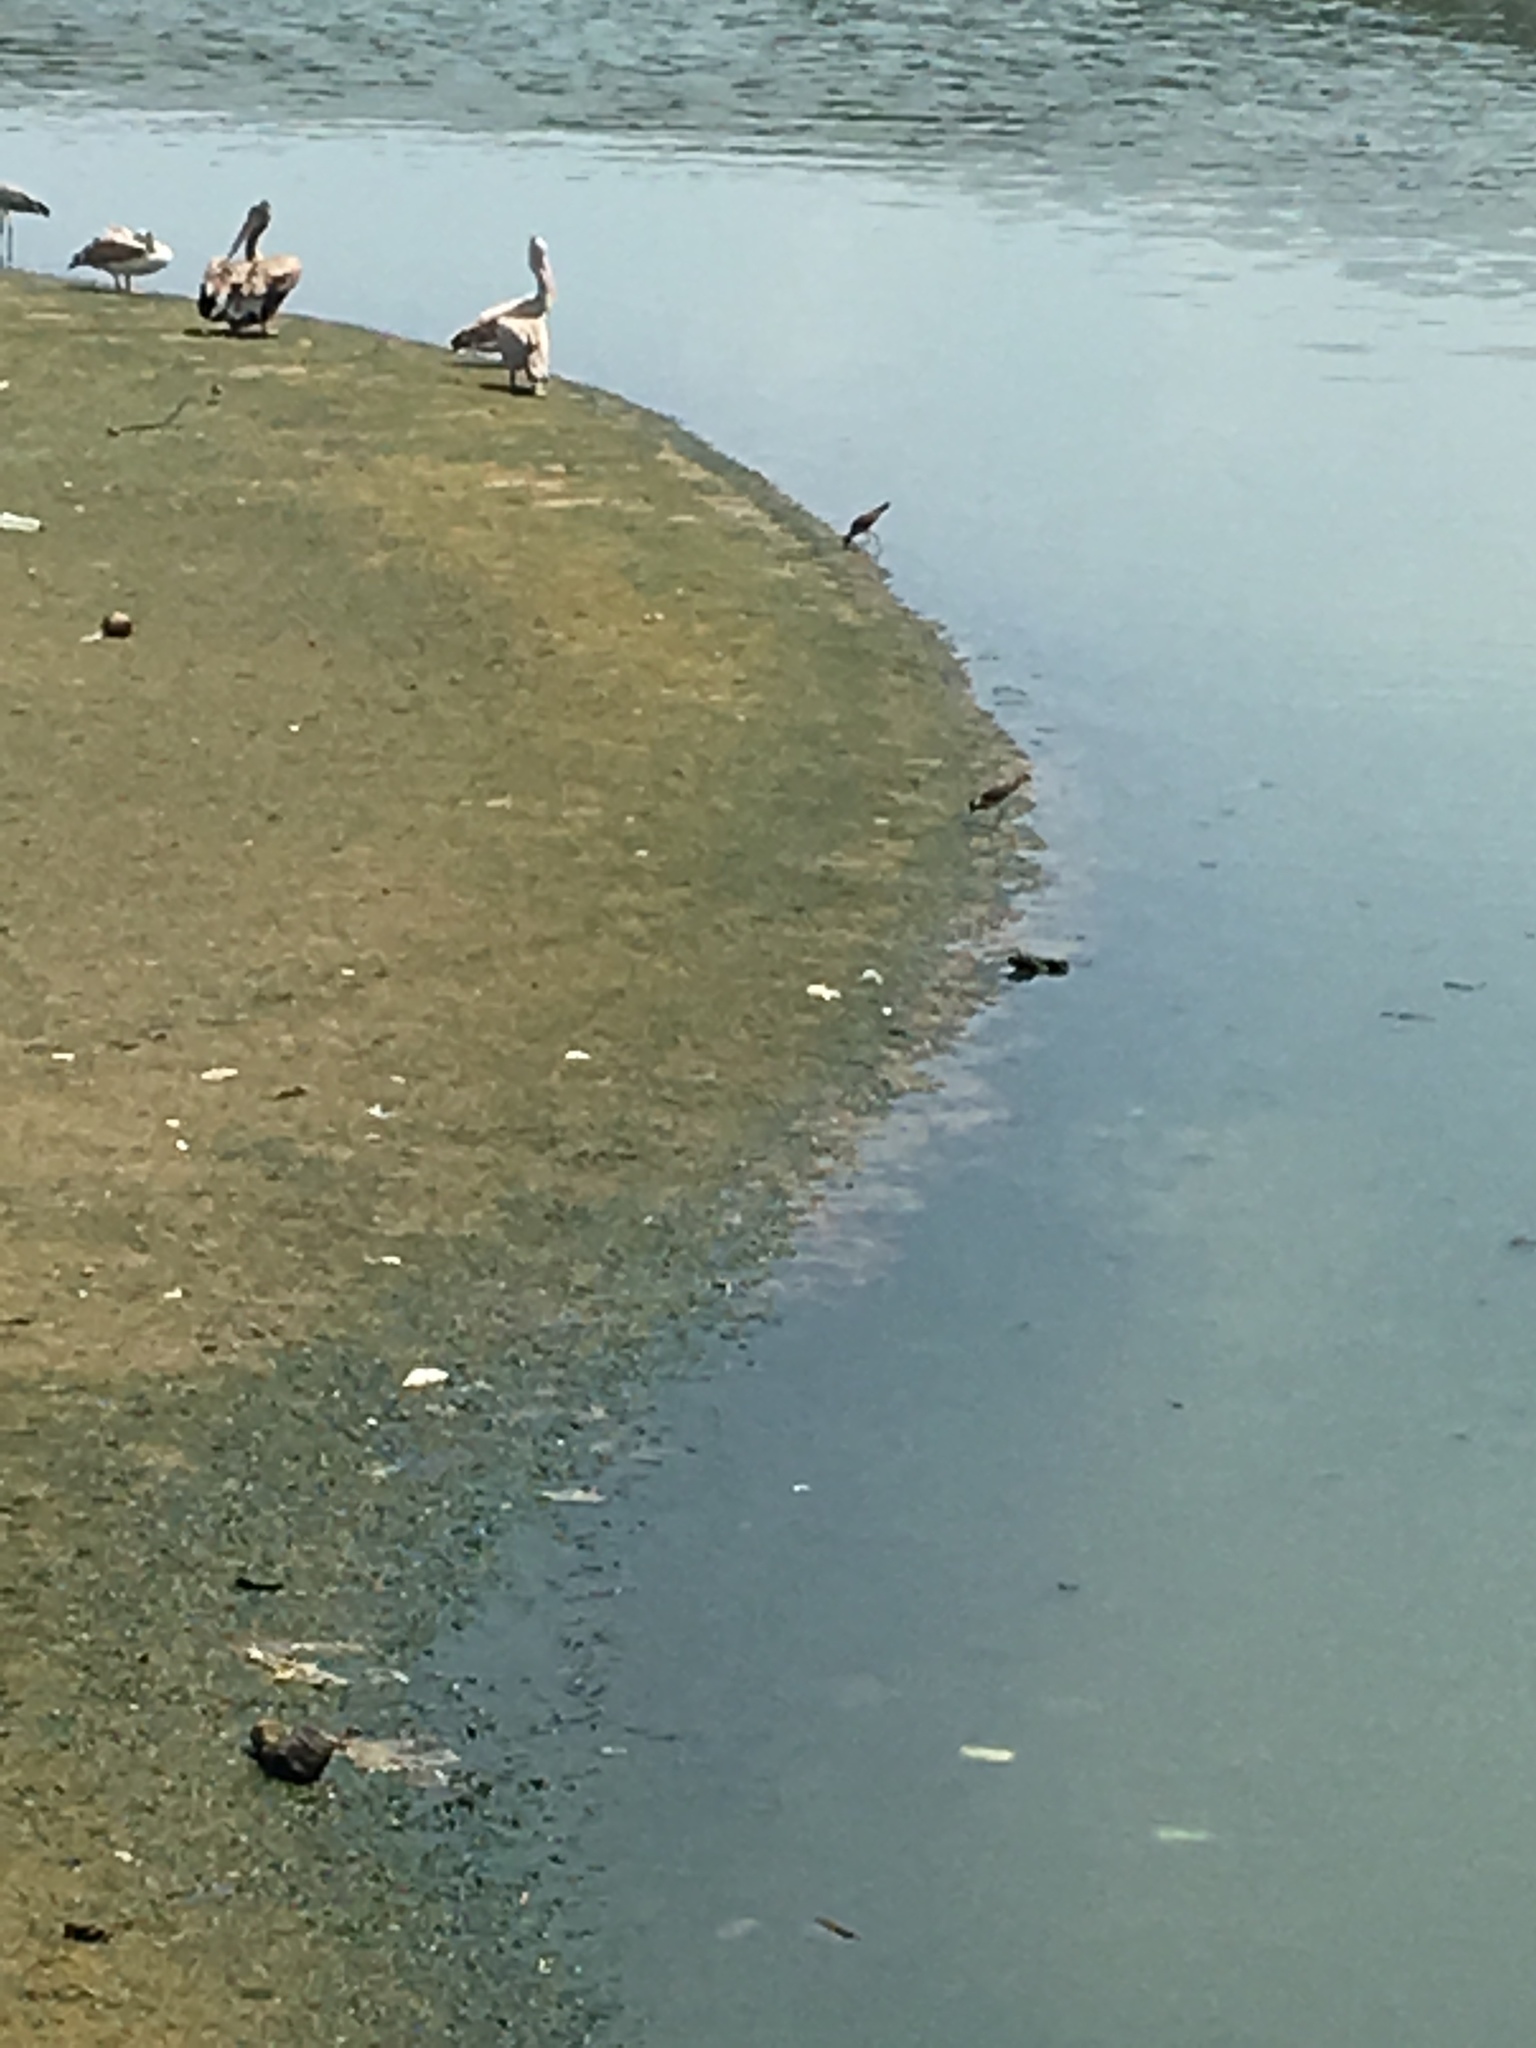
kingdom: Animalia
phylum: Chordata
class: Aves
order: Charadriiformes
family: Charadriidae
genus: Vanellus
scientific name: Vanellus indicus
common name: Red-wattled lapwing
